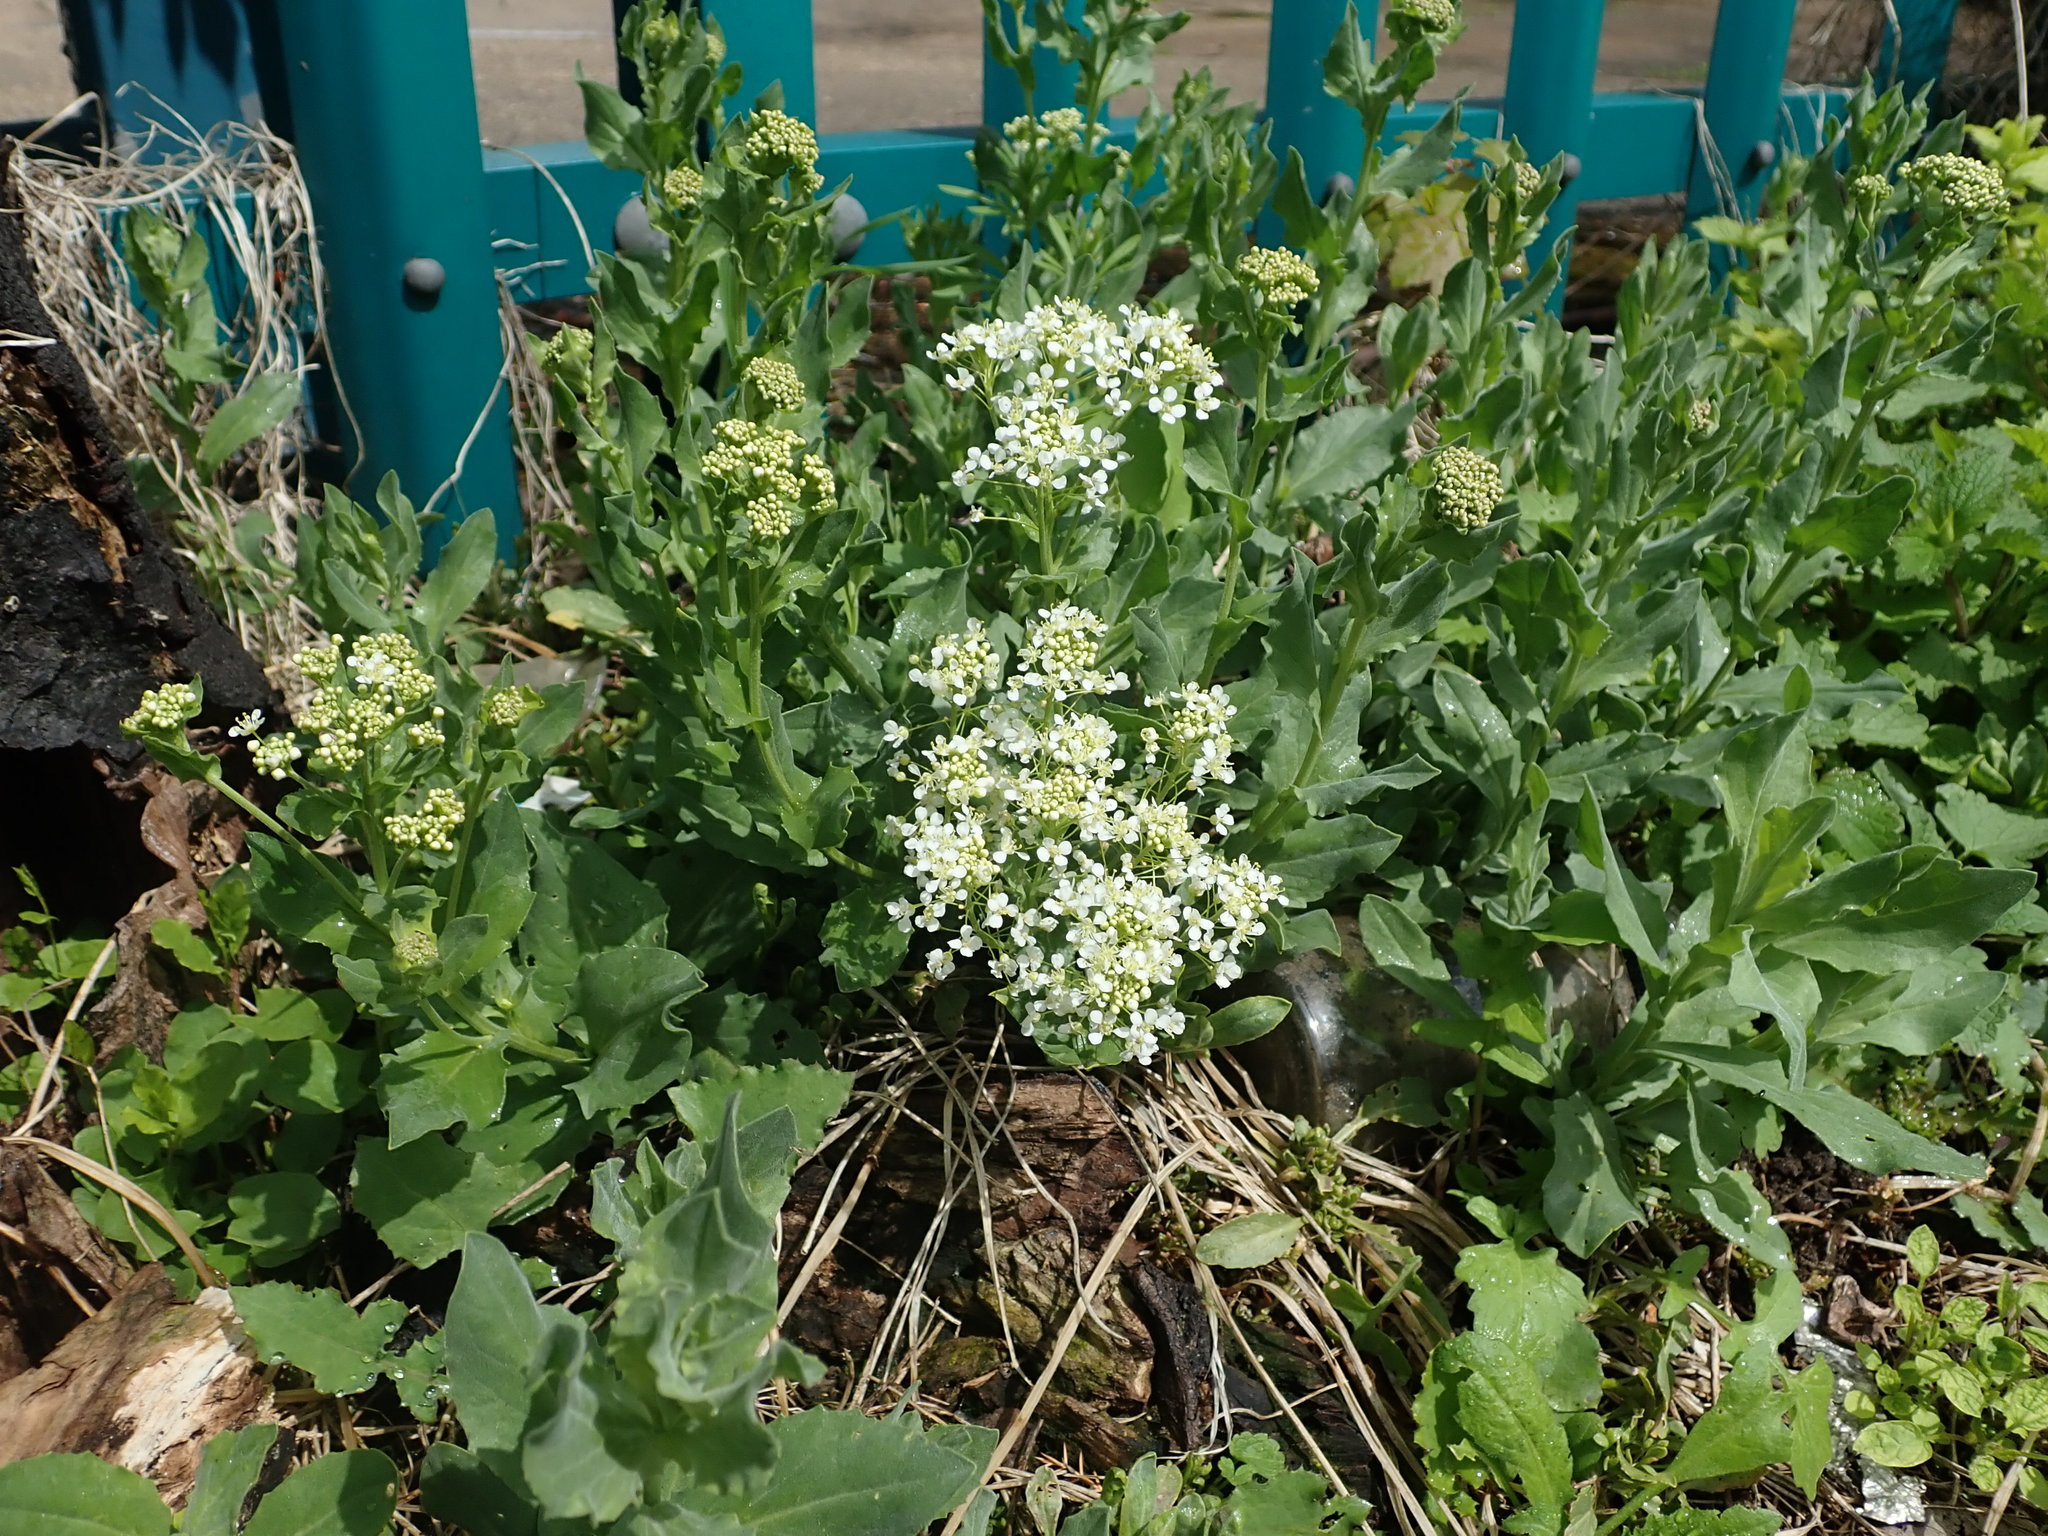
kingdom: Plantae
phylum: Tracheophyta
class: Magnoliopsida
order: Brassicales
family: Brassicaceae
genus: Lepidium
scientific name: Lepidium draba
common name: Hoary cress
